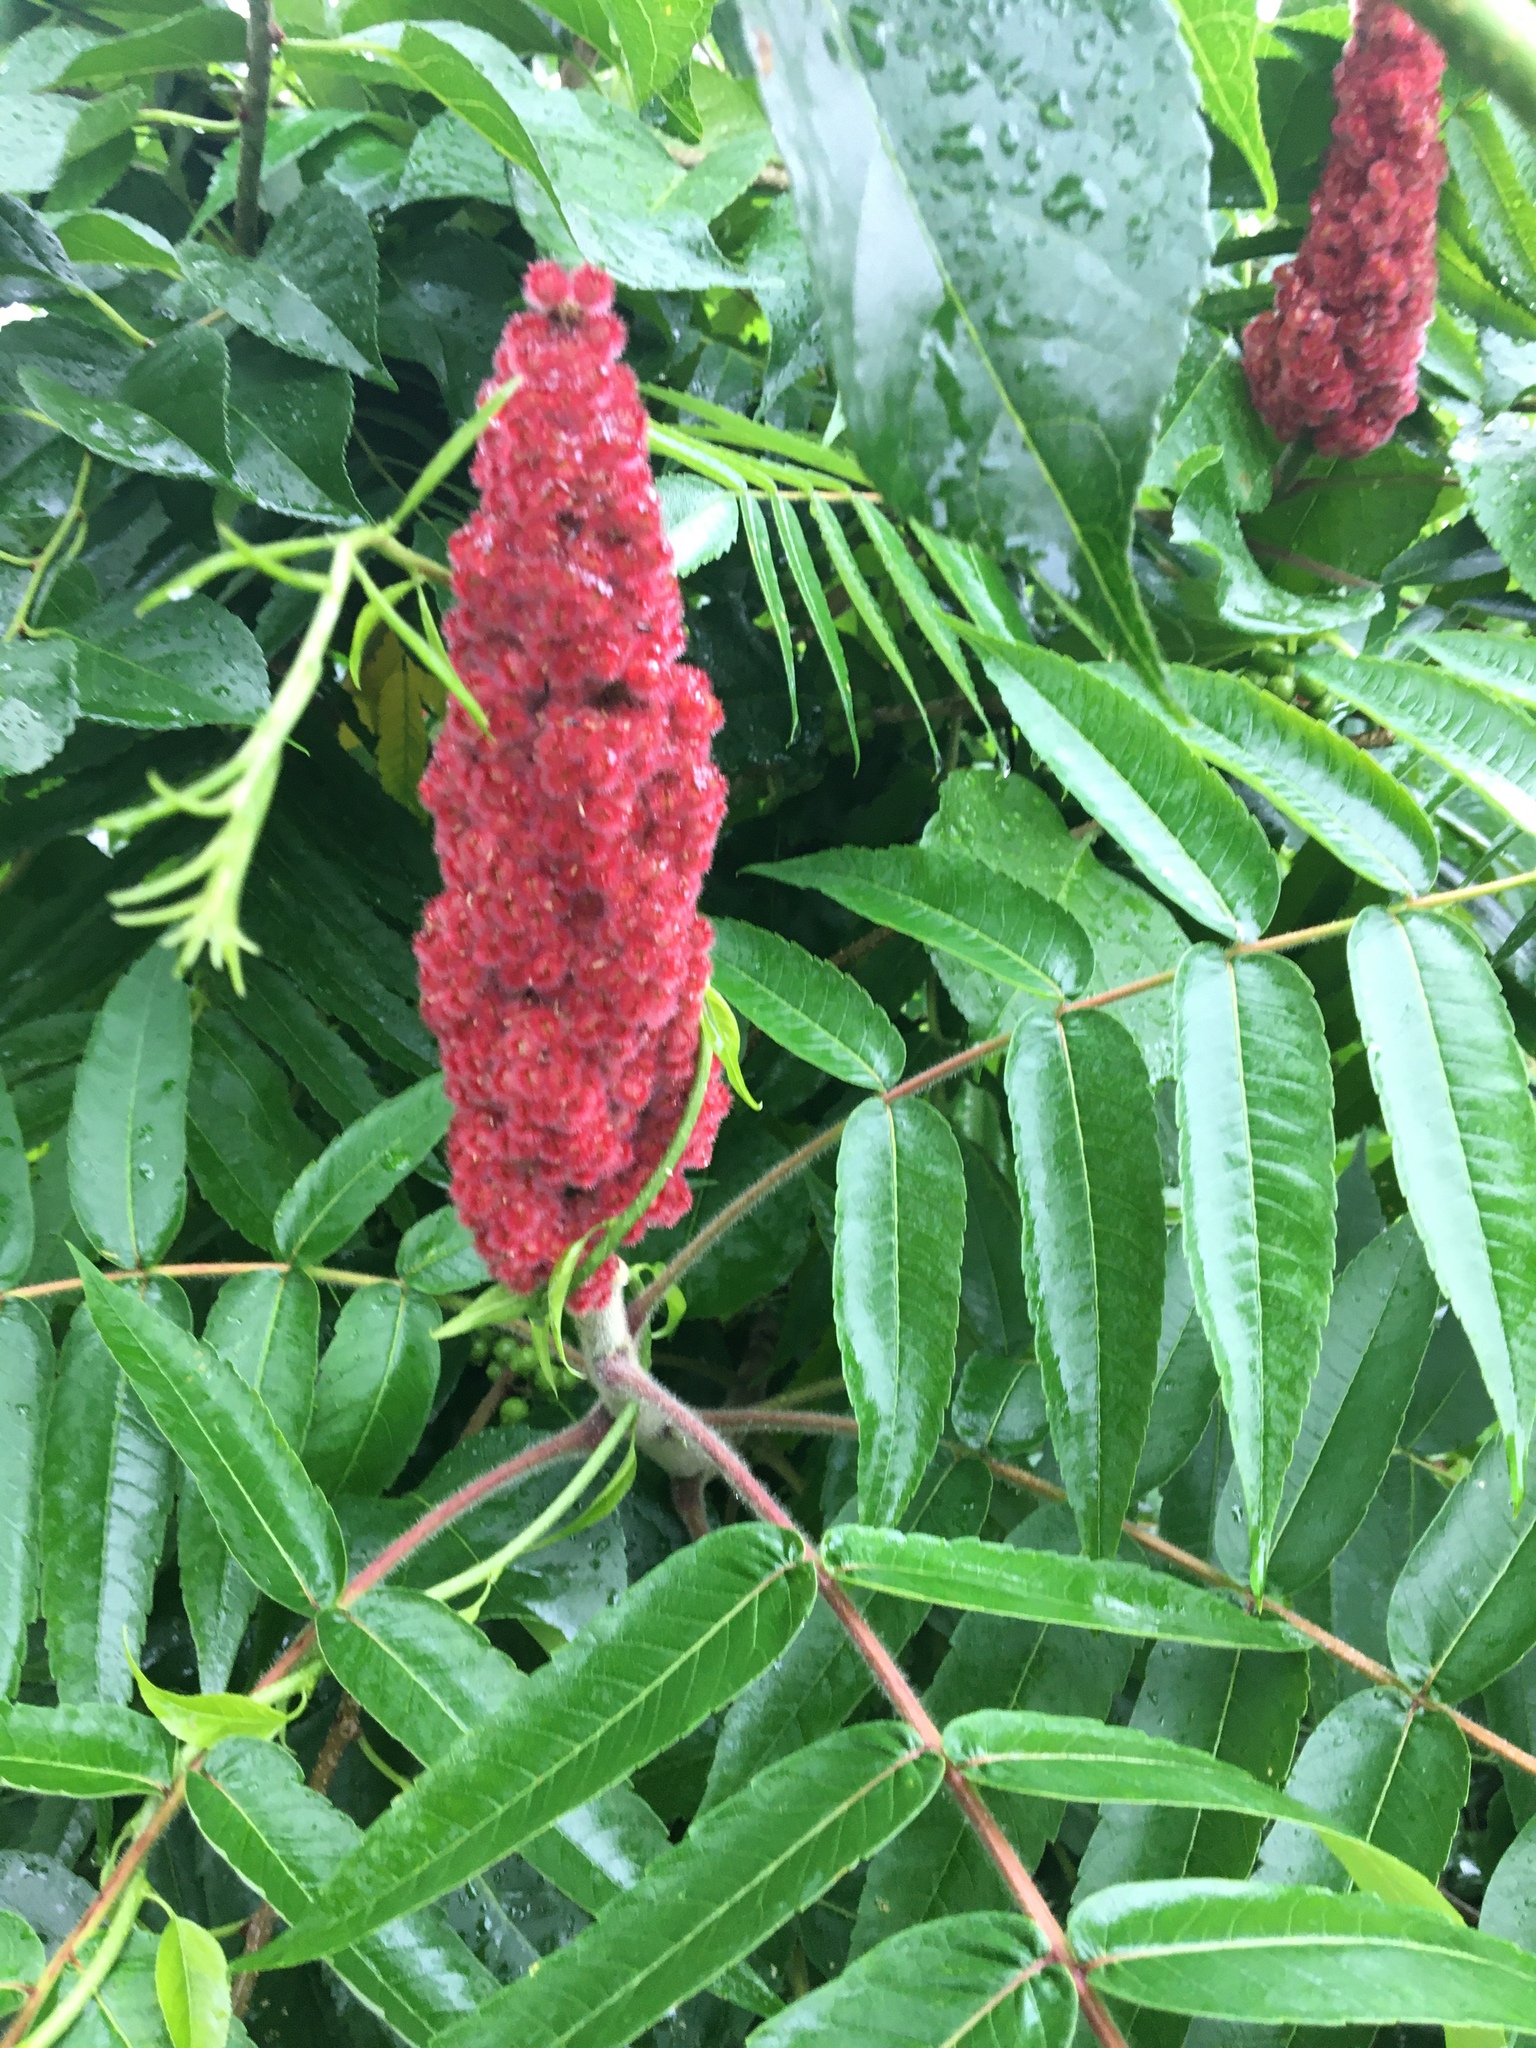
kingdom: Plantae
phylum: Tracheophyta
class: Magnoliopsida
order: Sapindales
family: Anacardiaceae
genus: Rhus
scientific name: Rhus typhina
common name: Staghorn sumac
